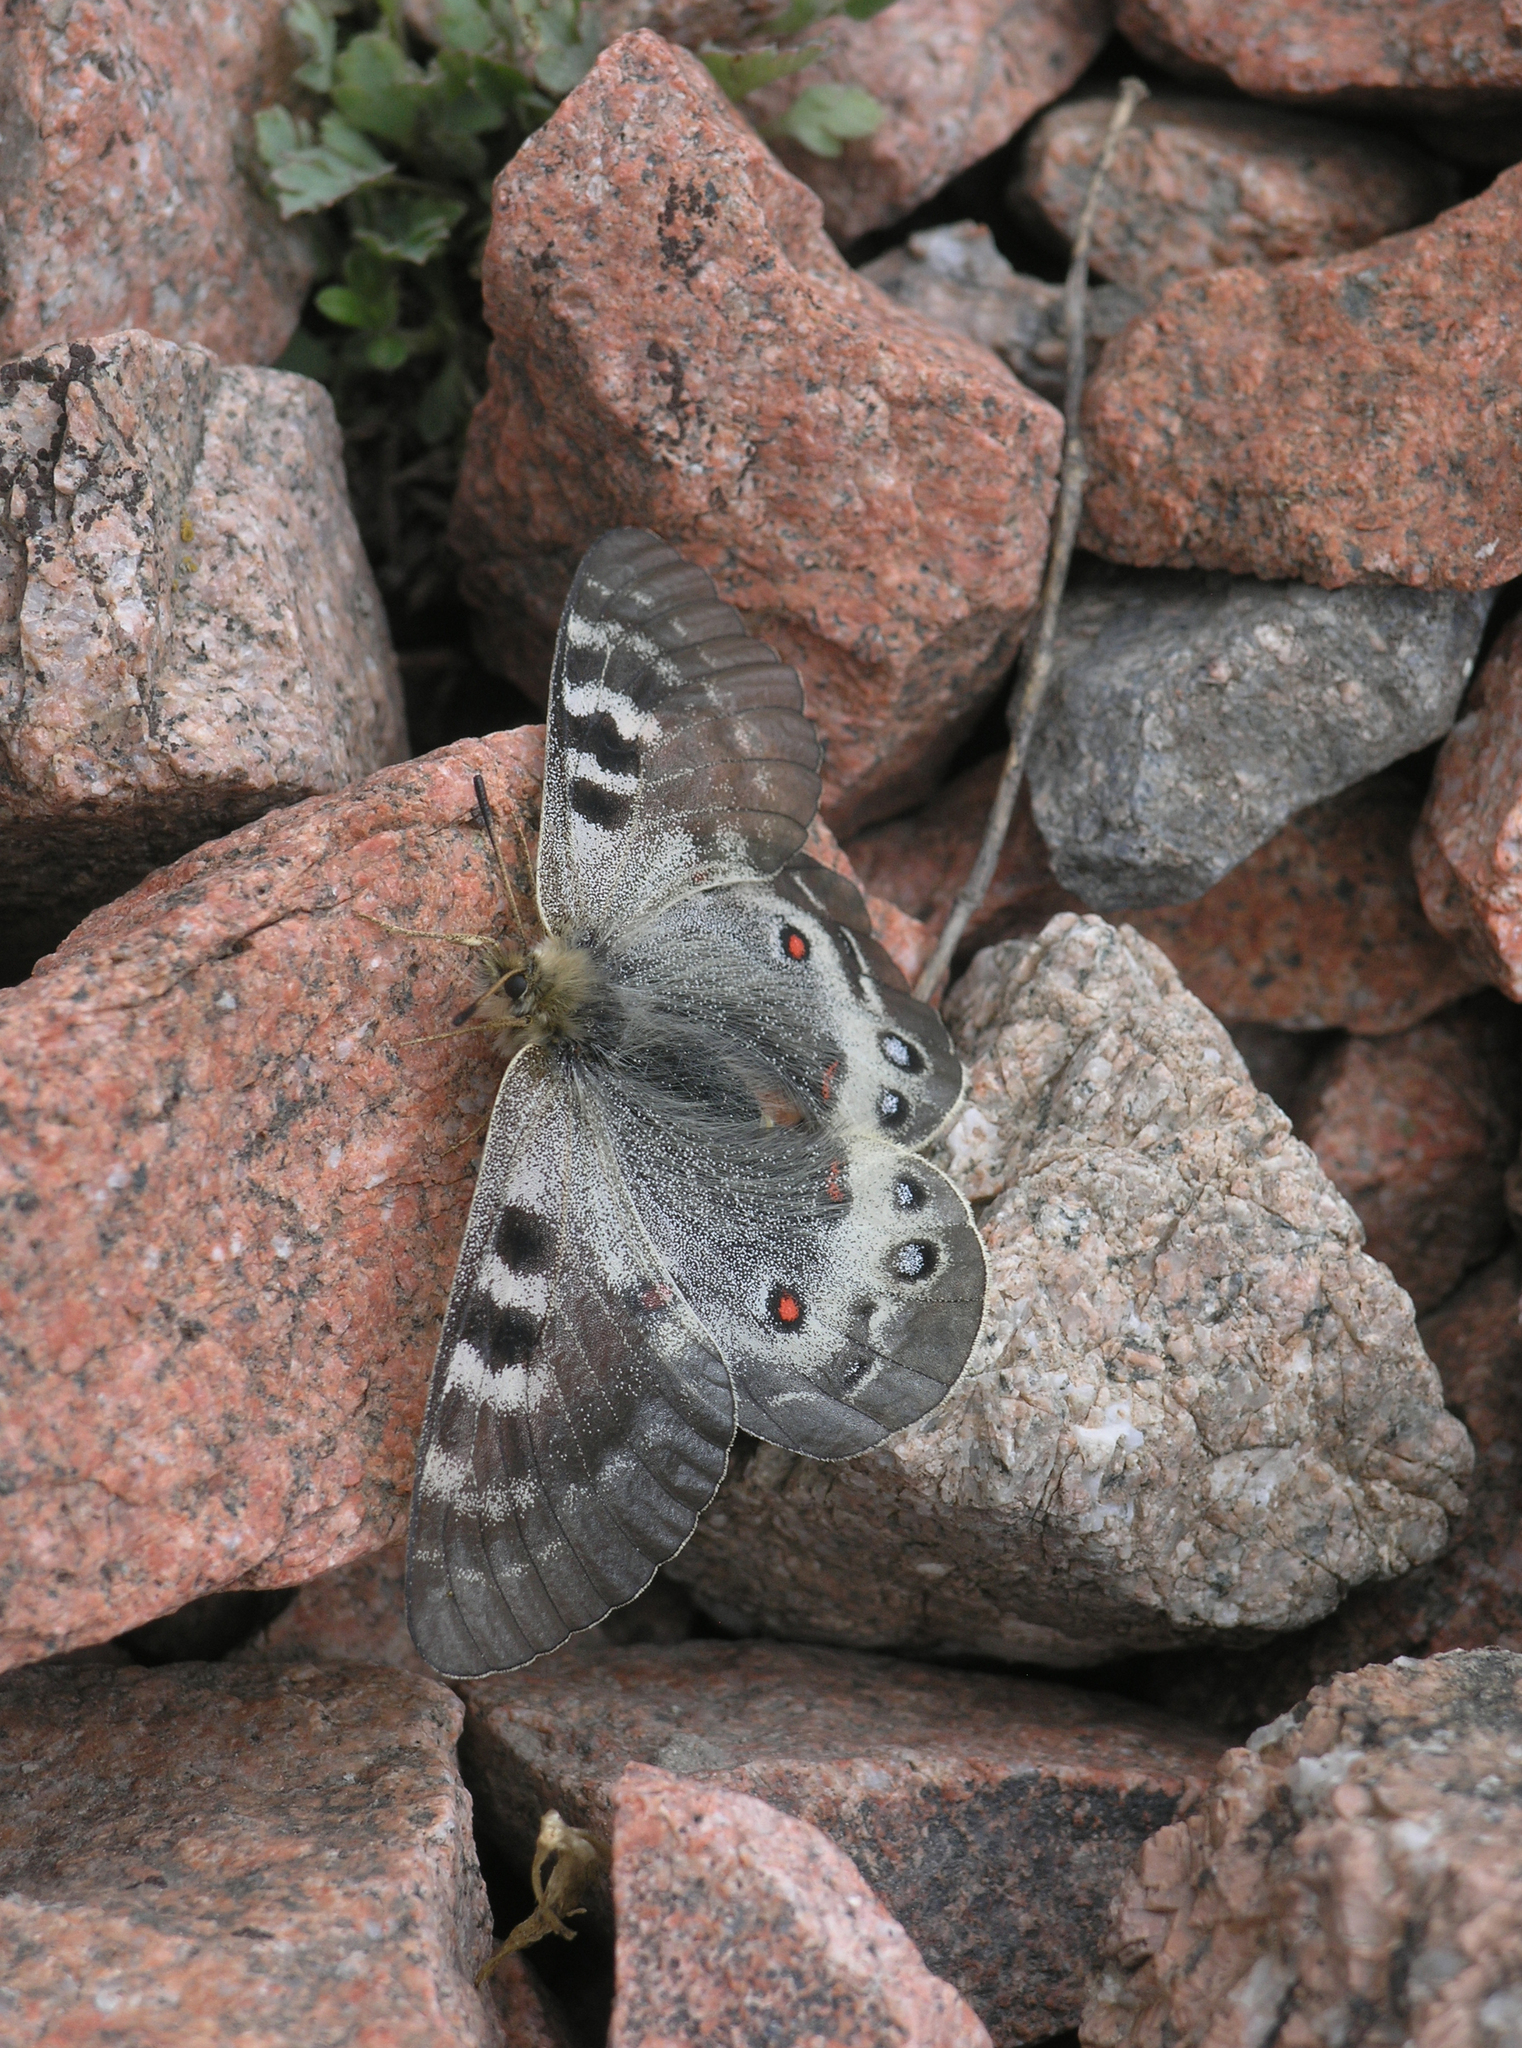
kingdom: Animalia
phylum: Arthropoda
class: Insecta
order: Lepidoptera
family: Papilionidae
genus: Parnassius
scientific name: Parnassius delphius
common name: Banded apollo
